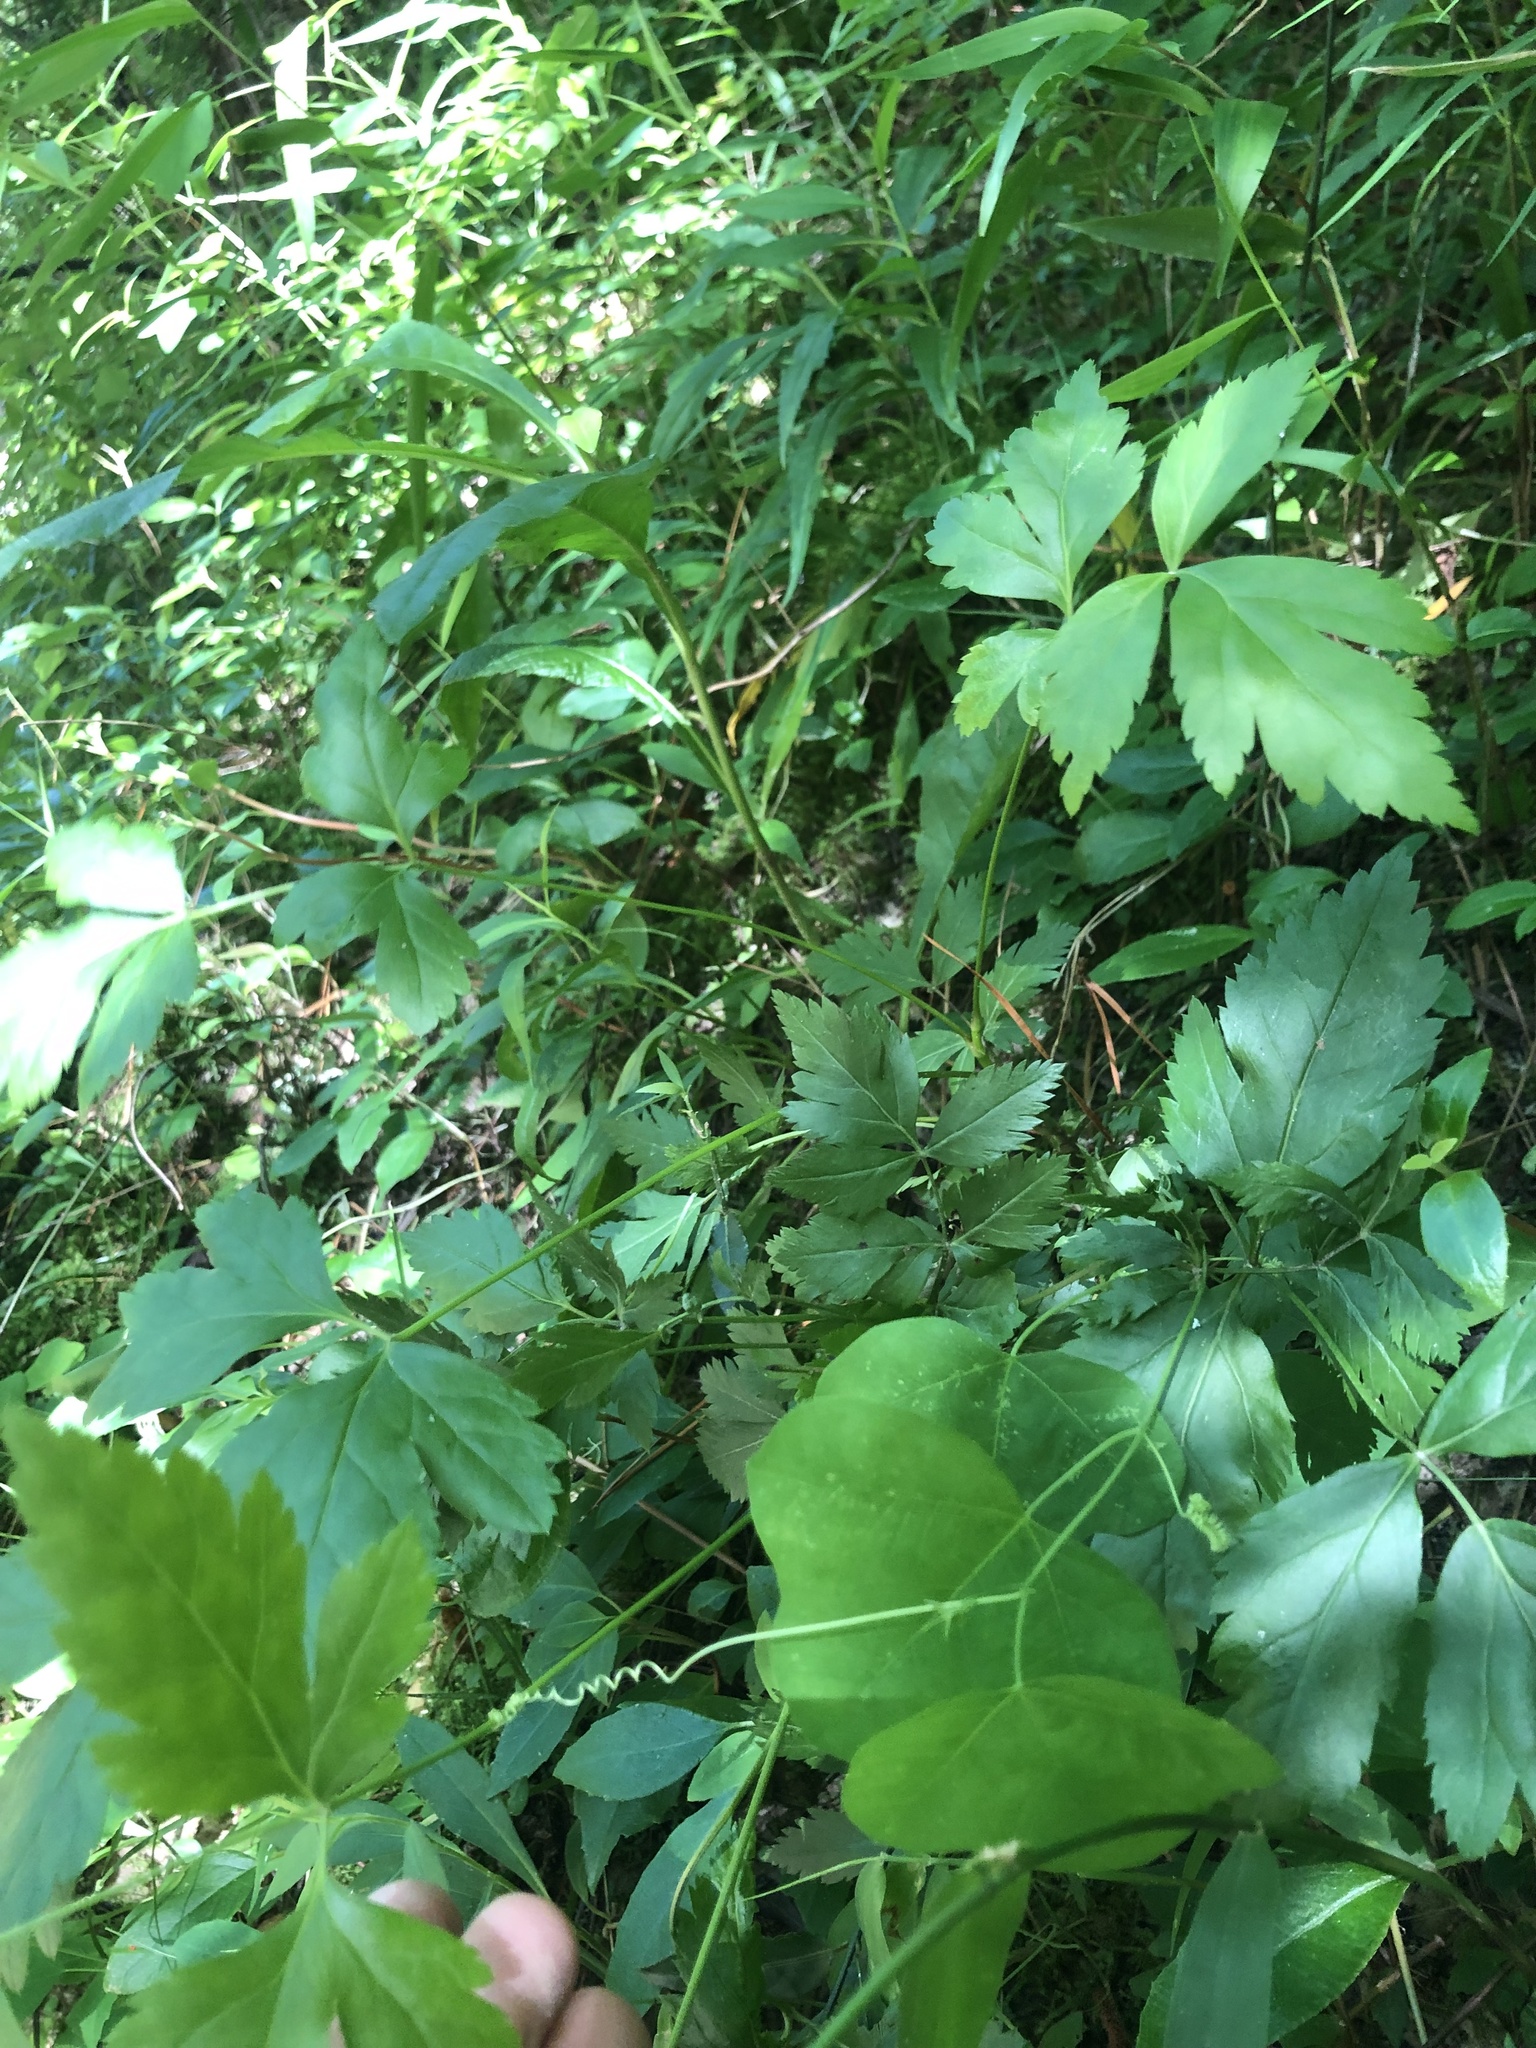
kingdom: Plantae
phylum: Tracheophyta
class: Magnoliopsida
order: Ranunculales
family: Ranunculaceae
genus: Xanthorhiza
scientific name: Xanthorhiza simplicissima
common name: Yellowroot
